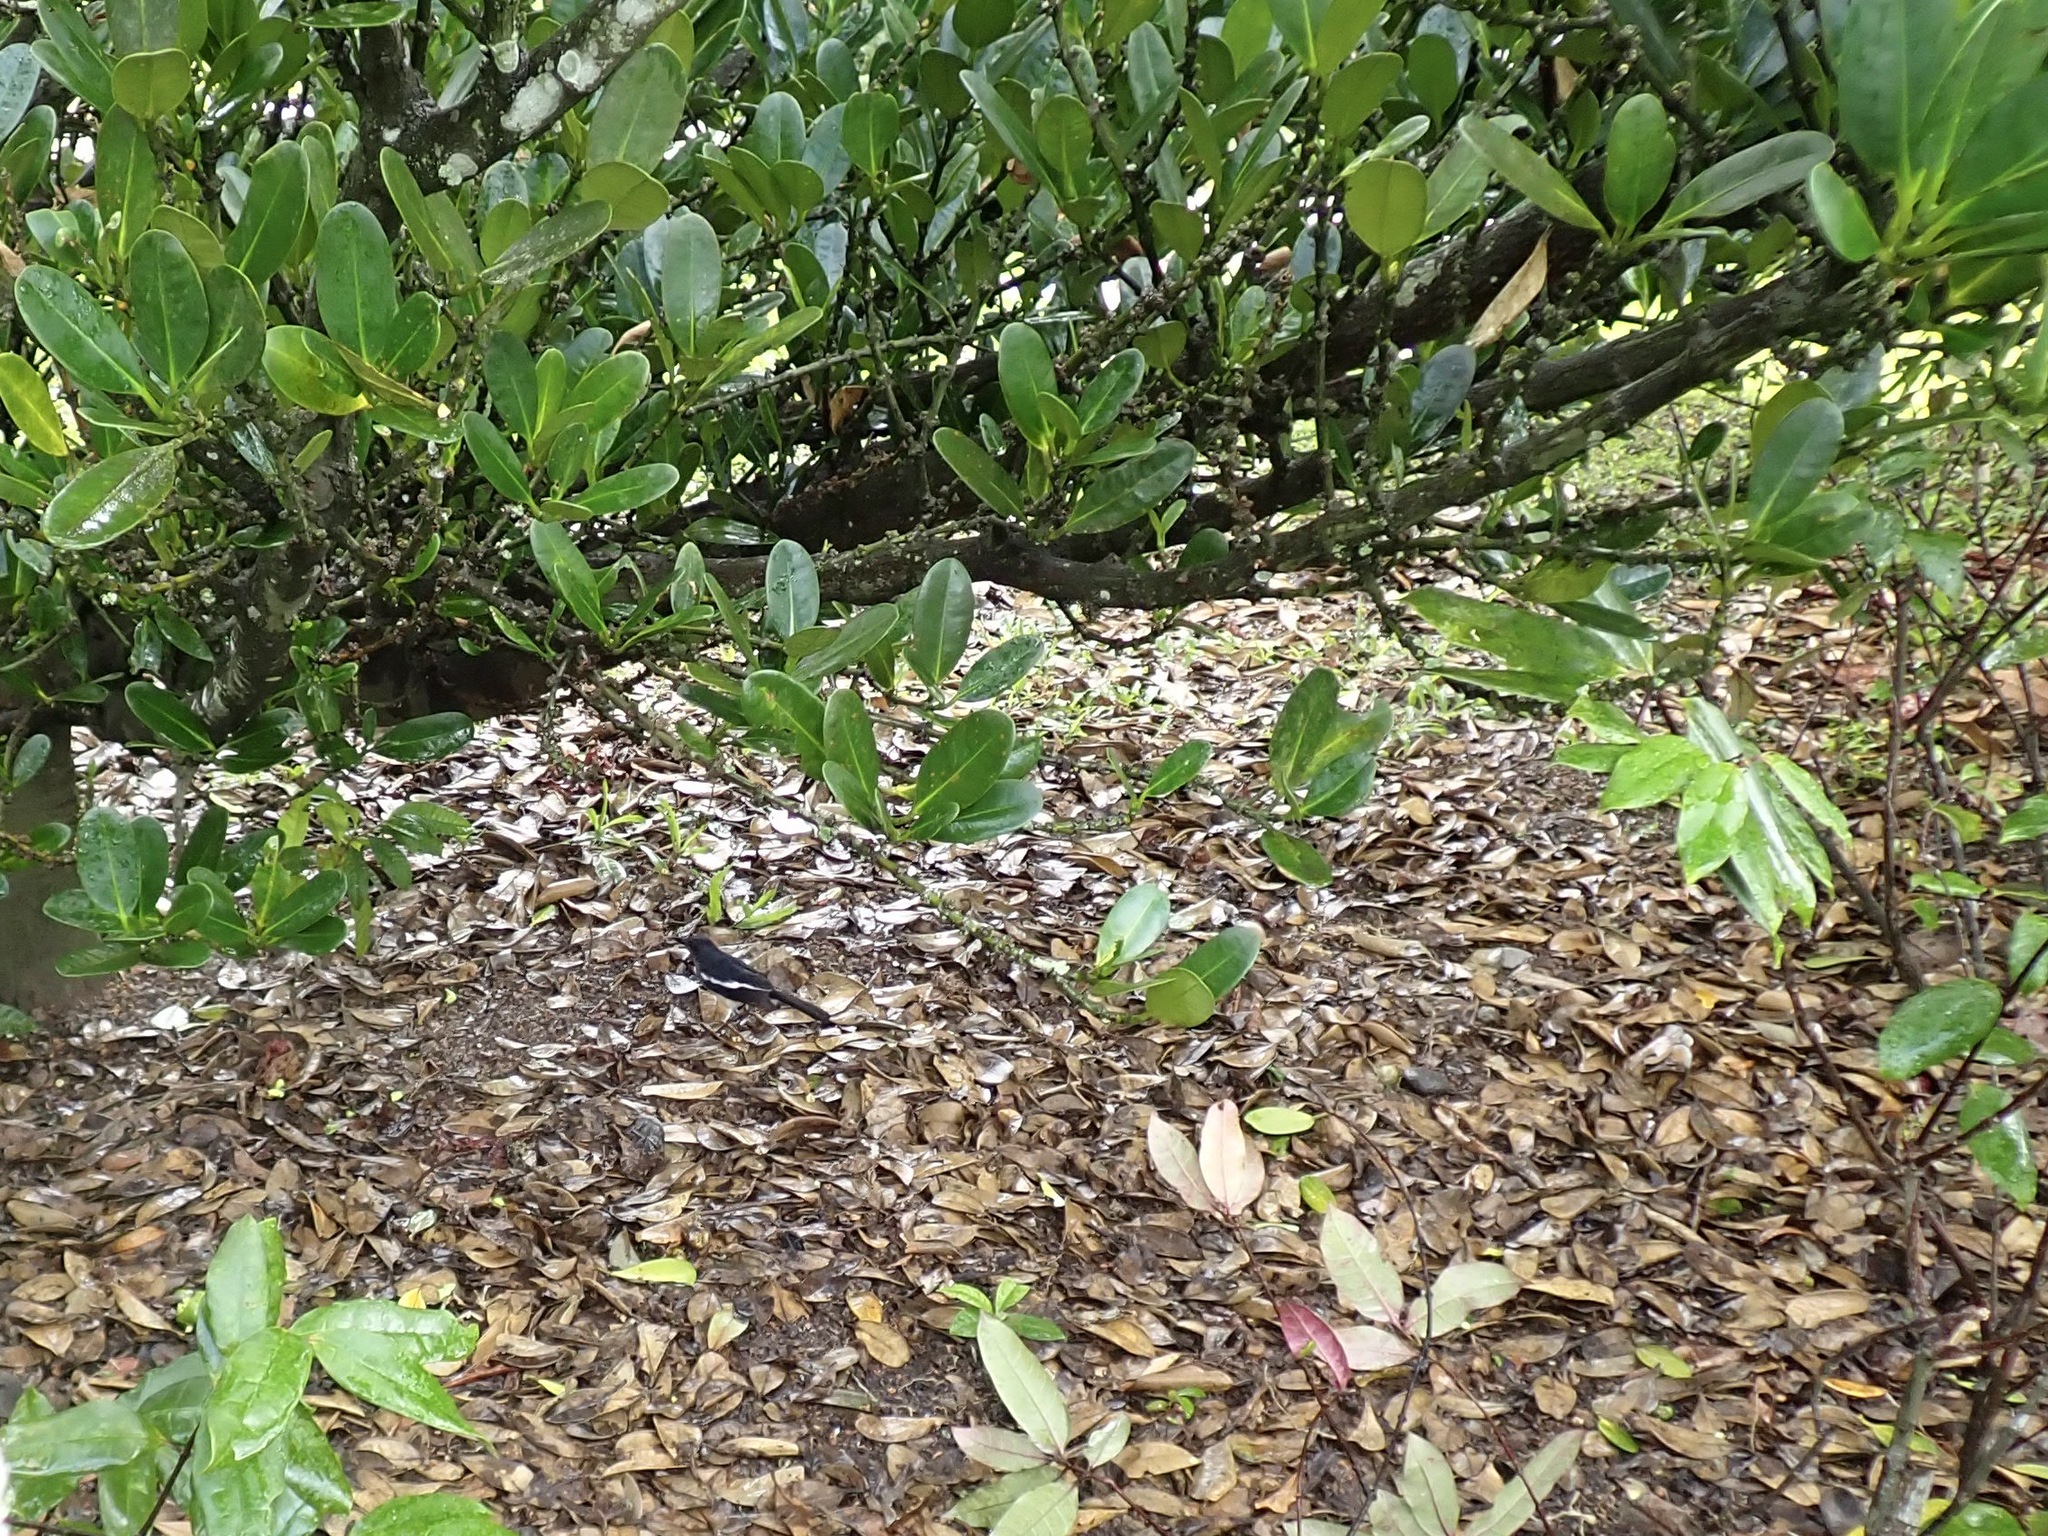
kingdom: Animalia
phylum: Chordata
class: Aves
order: Passeriformes
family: Muscicapidae
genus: Copsychus
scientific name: Copsychus saularis
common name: Oriental magpie-robin
